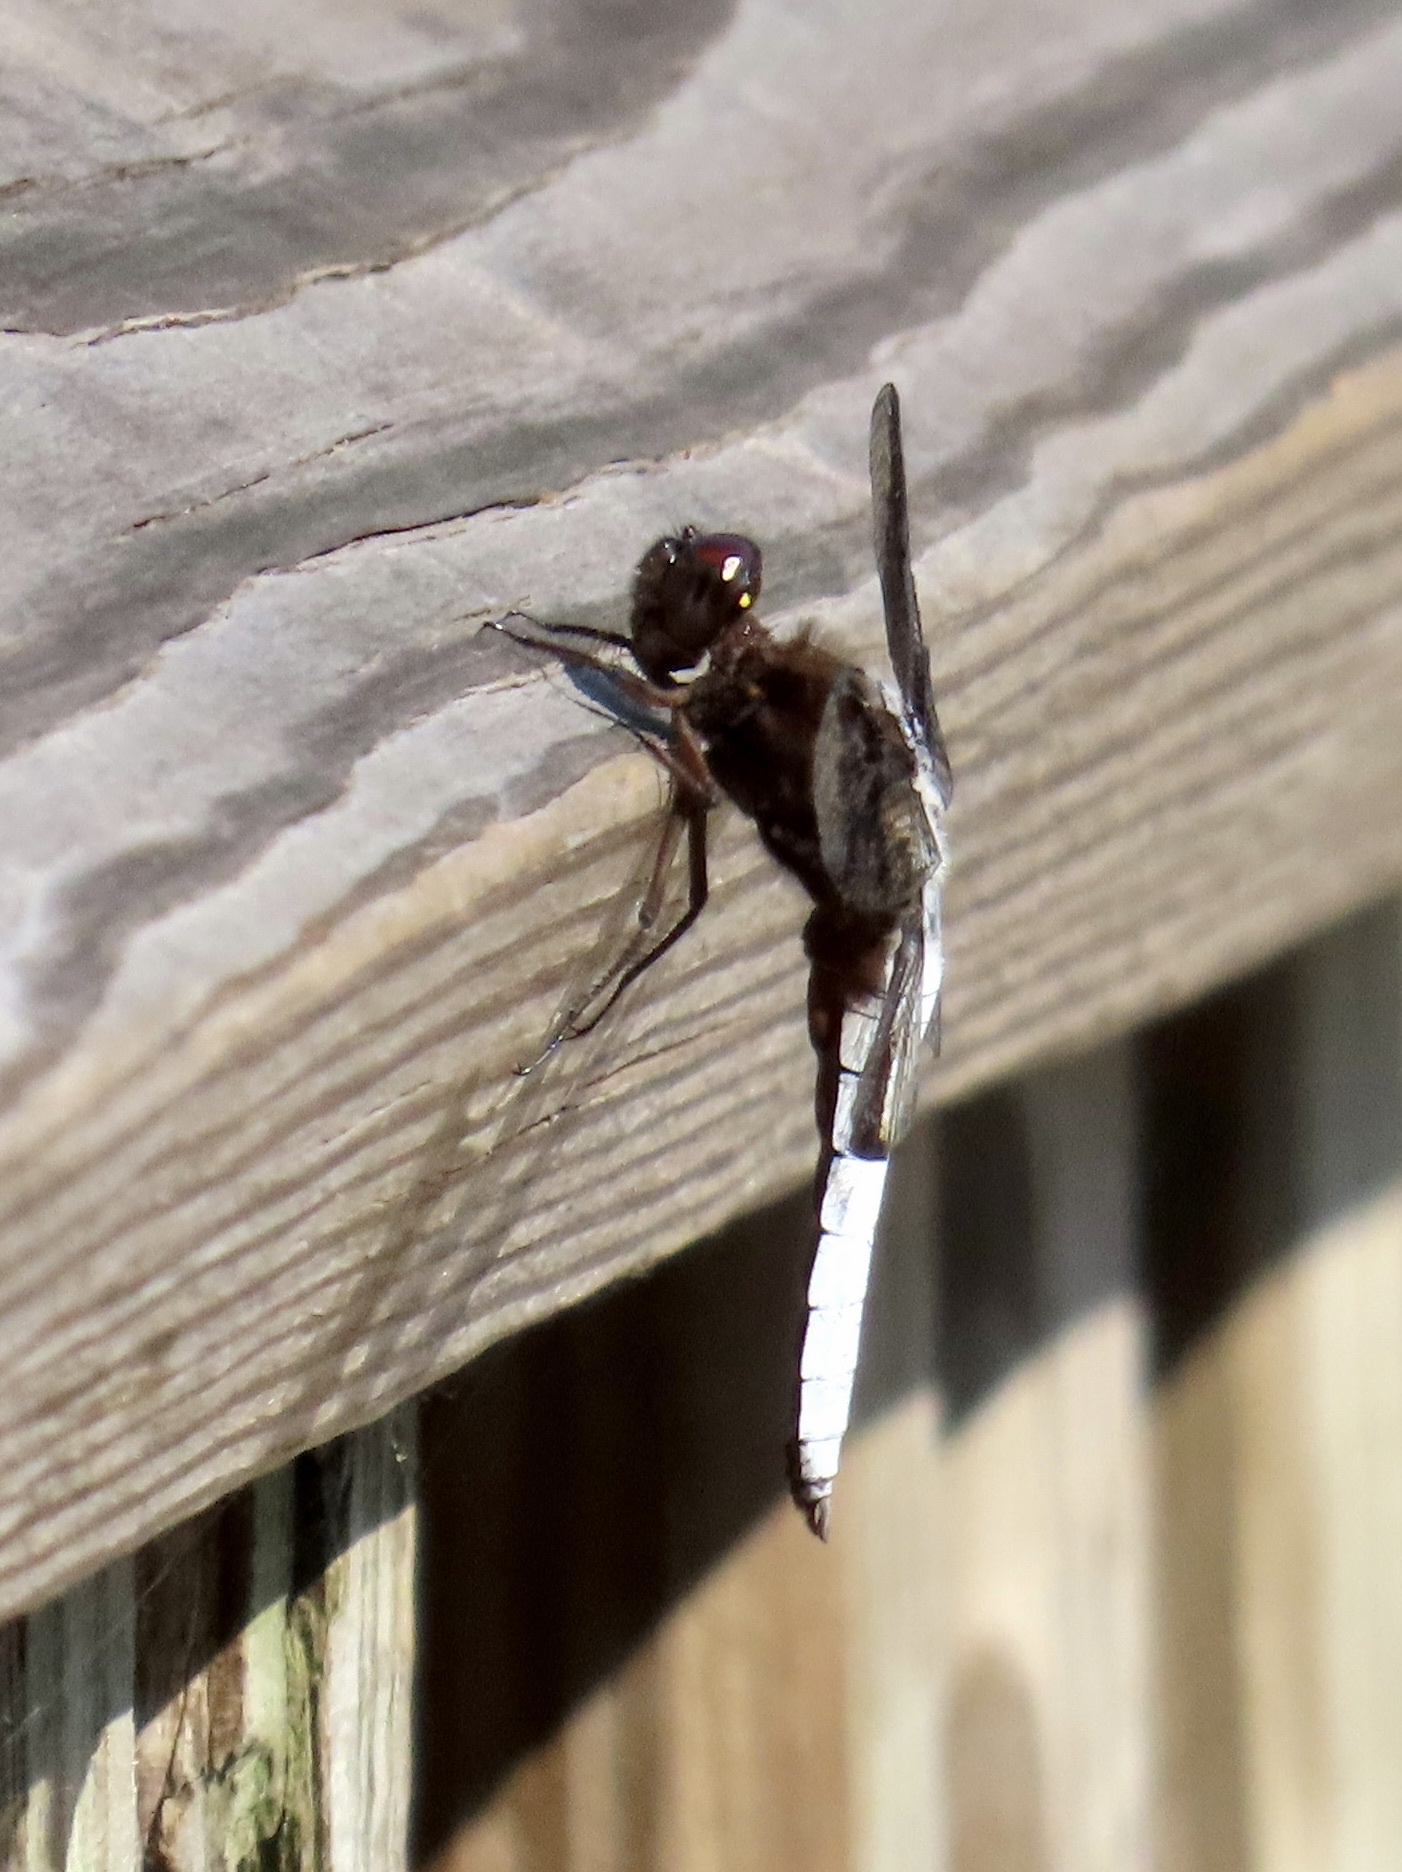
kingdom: Animalia
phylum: Arthropoda
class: Insecta
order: Odonata
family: Libellulidae
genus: Plathemis
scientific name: Plathemis lydia
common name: Common whitetail
